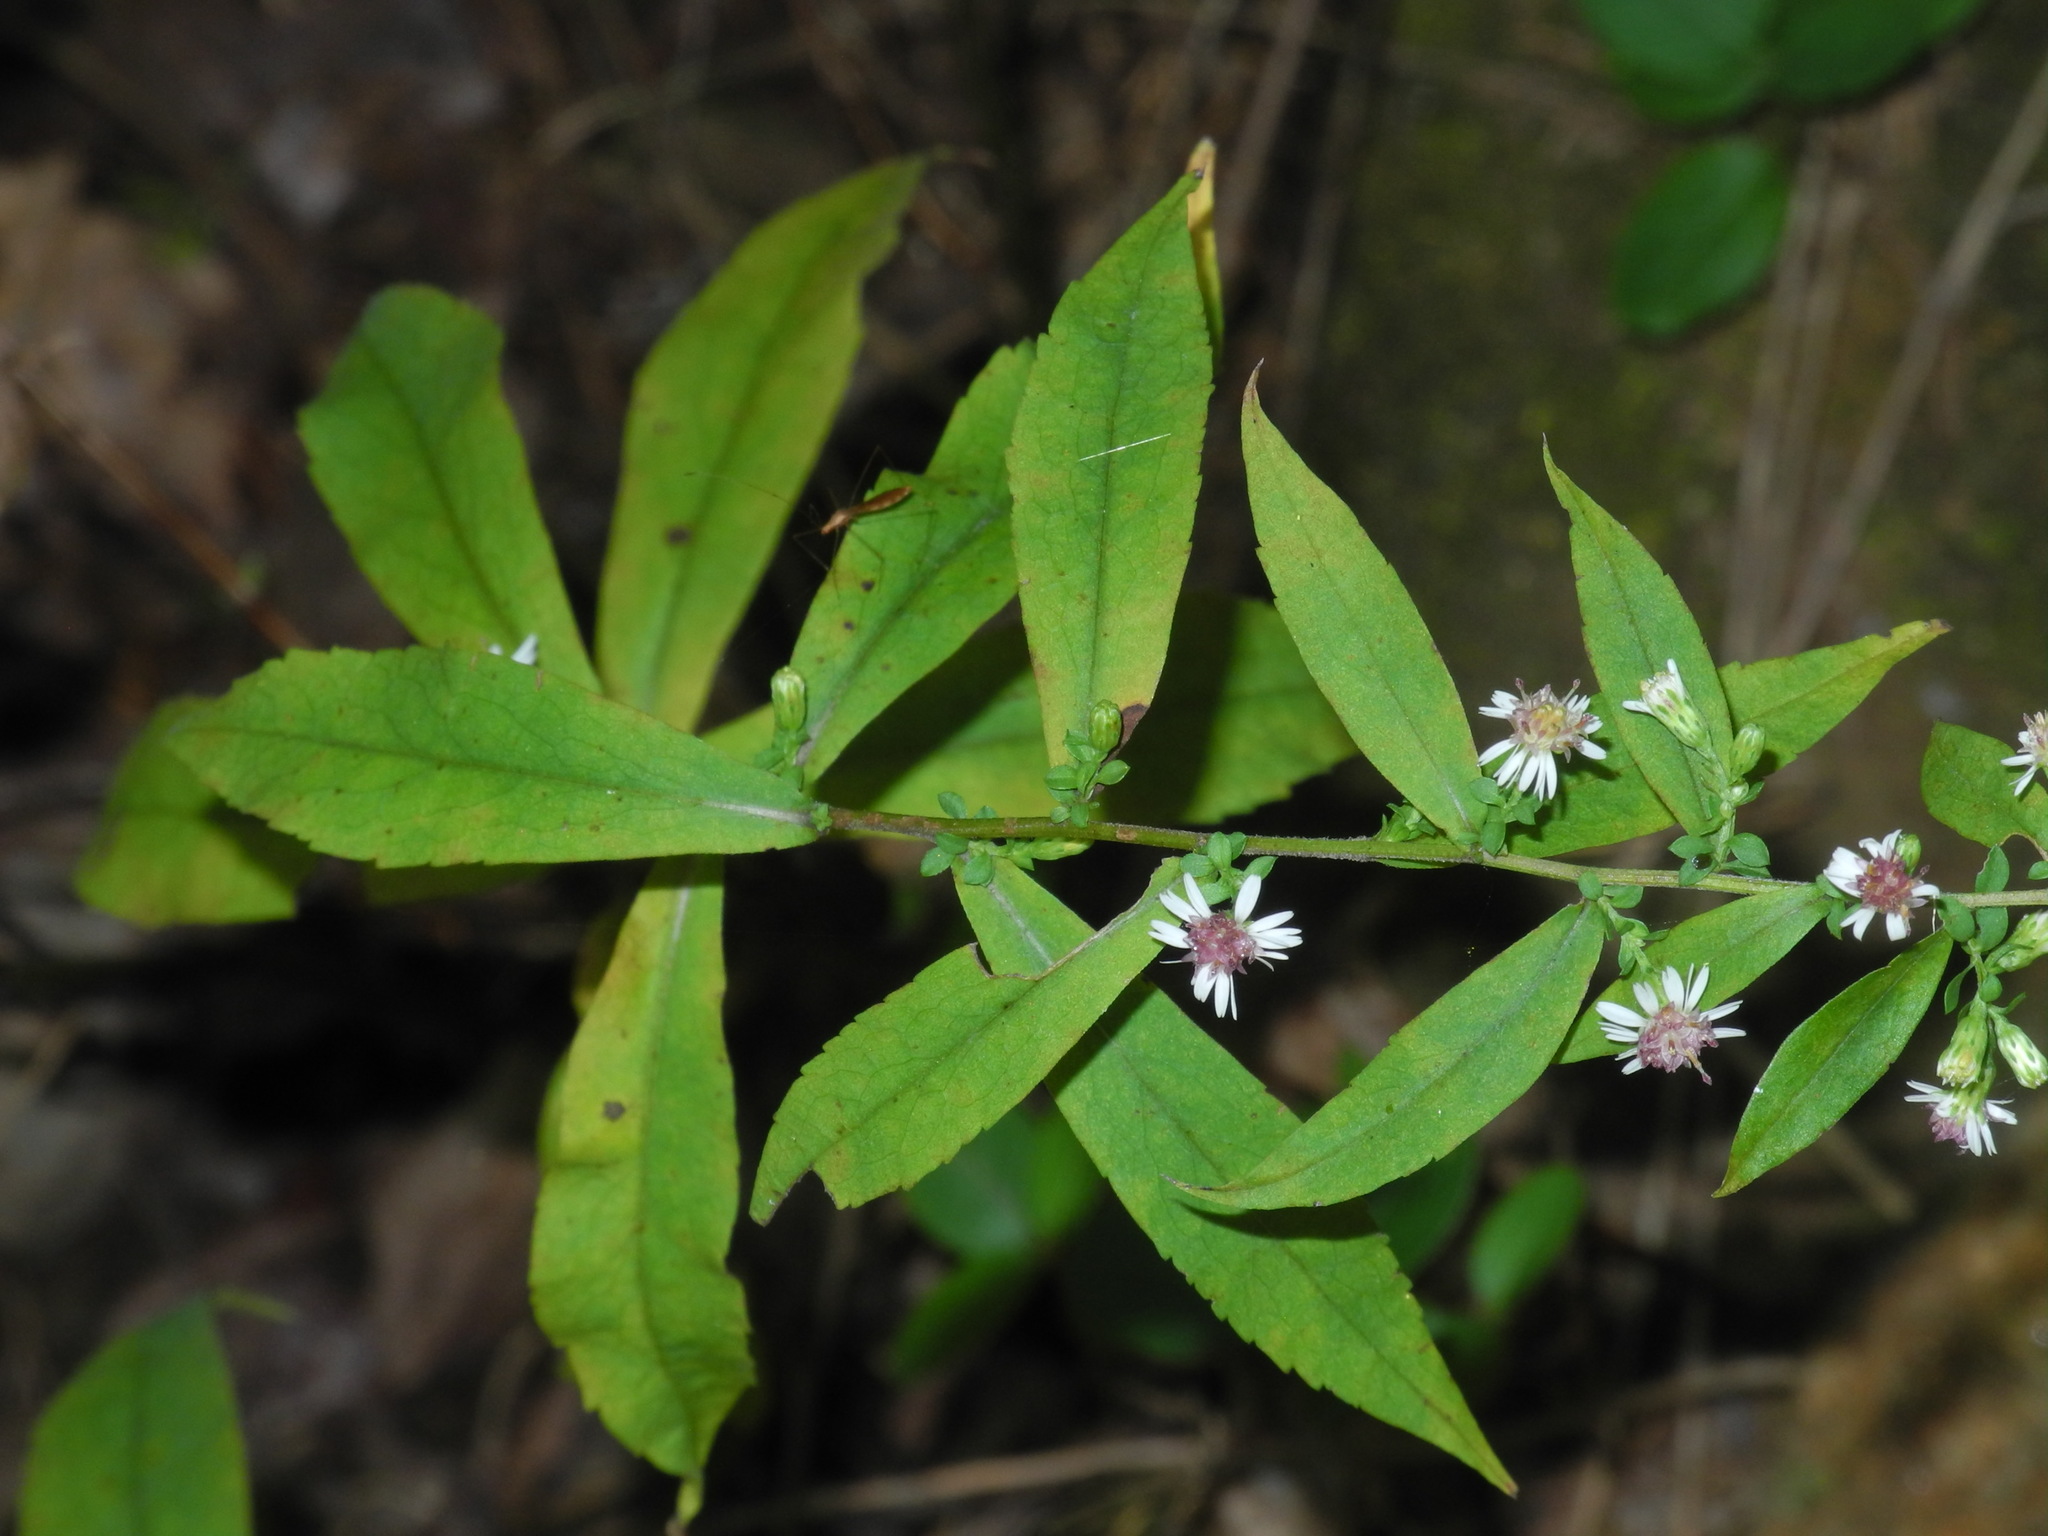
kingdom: Plantae
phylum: Tracheophyta
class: Magnoliopsida
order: Asterales
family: Asteraceae
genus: Symphyotrichum
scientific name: Symphyotrichum lateriflorum
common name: Calico aster
